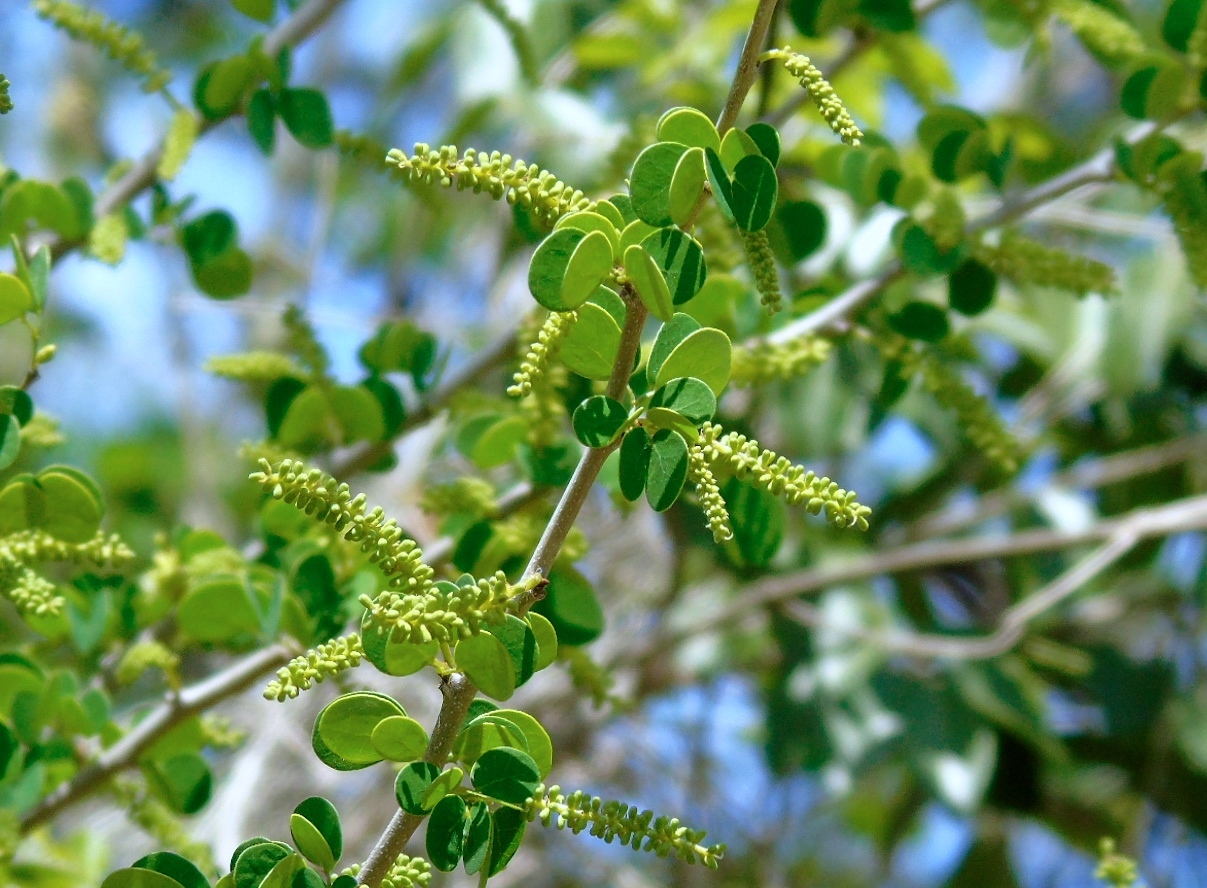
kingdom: Plantae
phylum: Tracheophyta
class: Magnoliopsida
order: Fabales
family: Fabaceae
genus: Microlobius
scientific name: Microlobius foetidus
